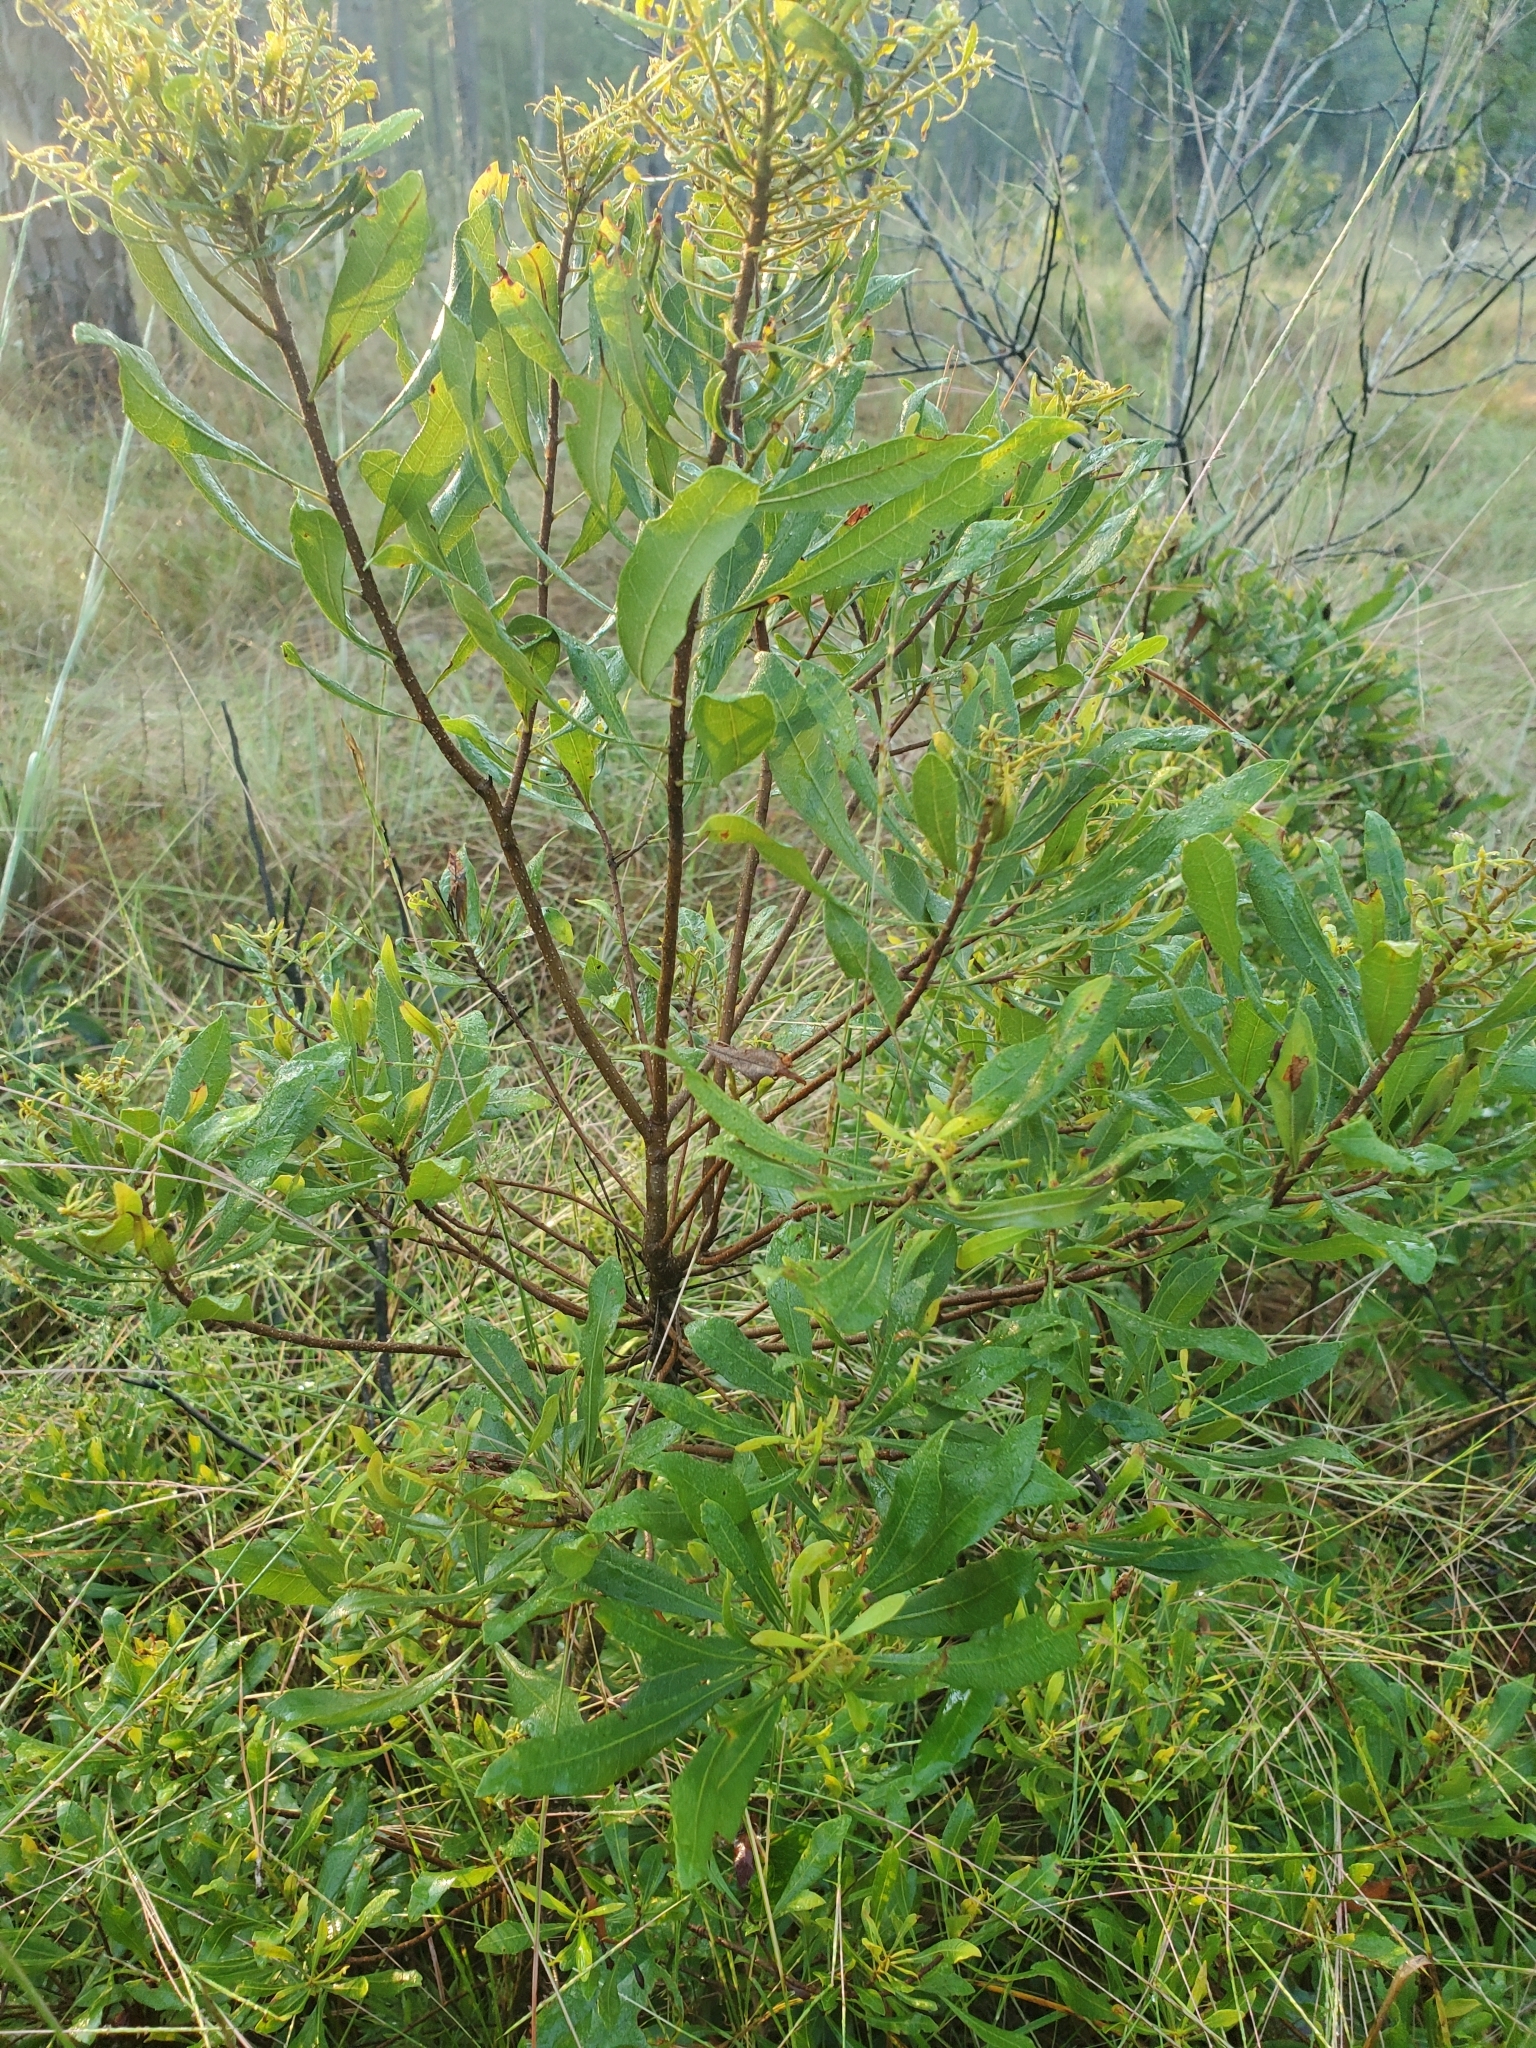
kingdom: Plantae
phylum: Tracheophyta
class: Magnoliopsida
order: Fagales
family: Myricaceae
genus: Morella
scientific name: Morella cerifera
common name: Wax myrtle
